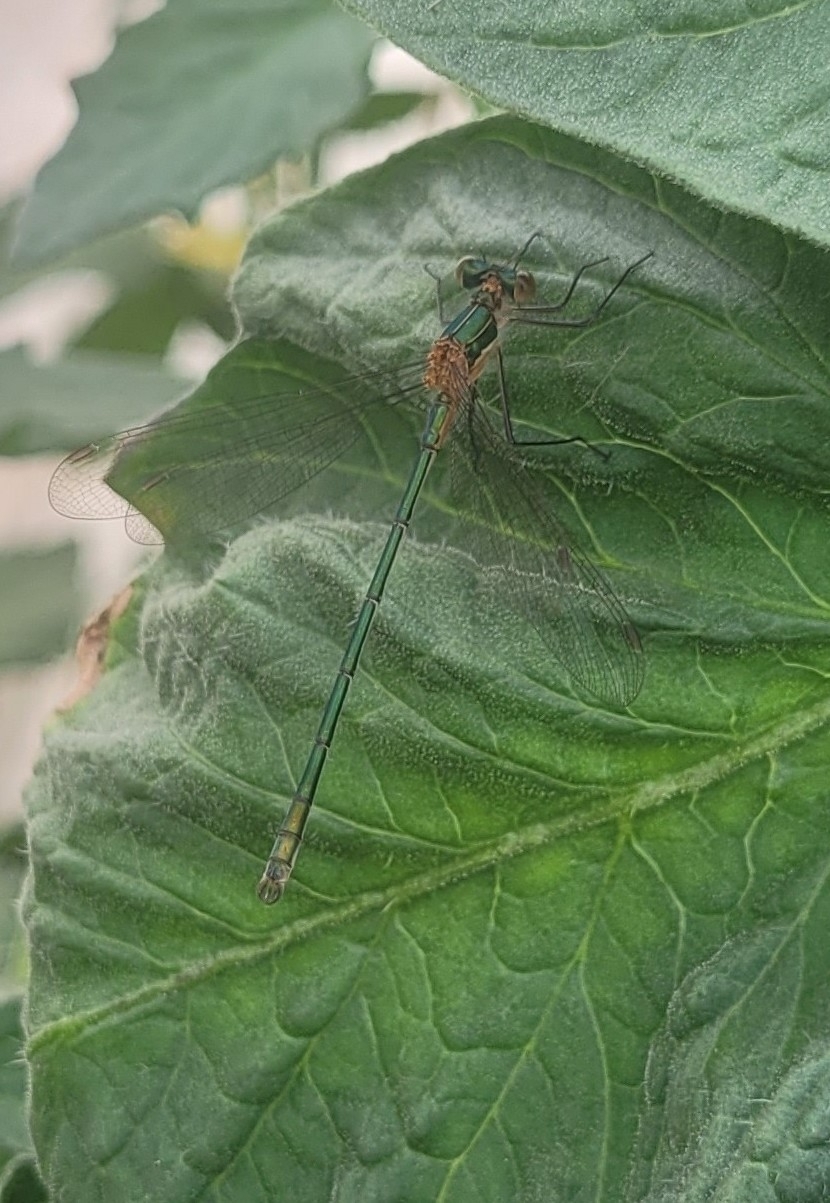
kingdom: Animalia
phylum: Arthropoda
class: Insecta
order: Odonata
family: Lestidae
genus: Lestes
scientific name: Lestes sponsa
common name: Common spreadwing
